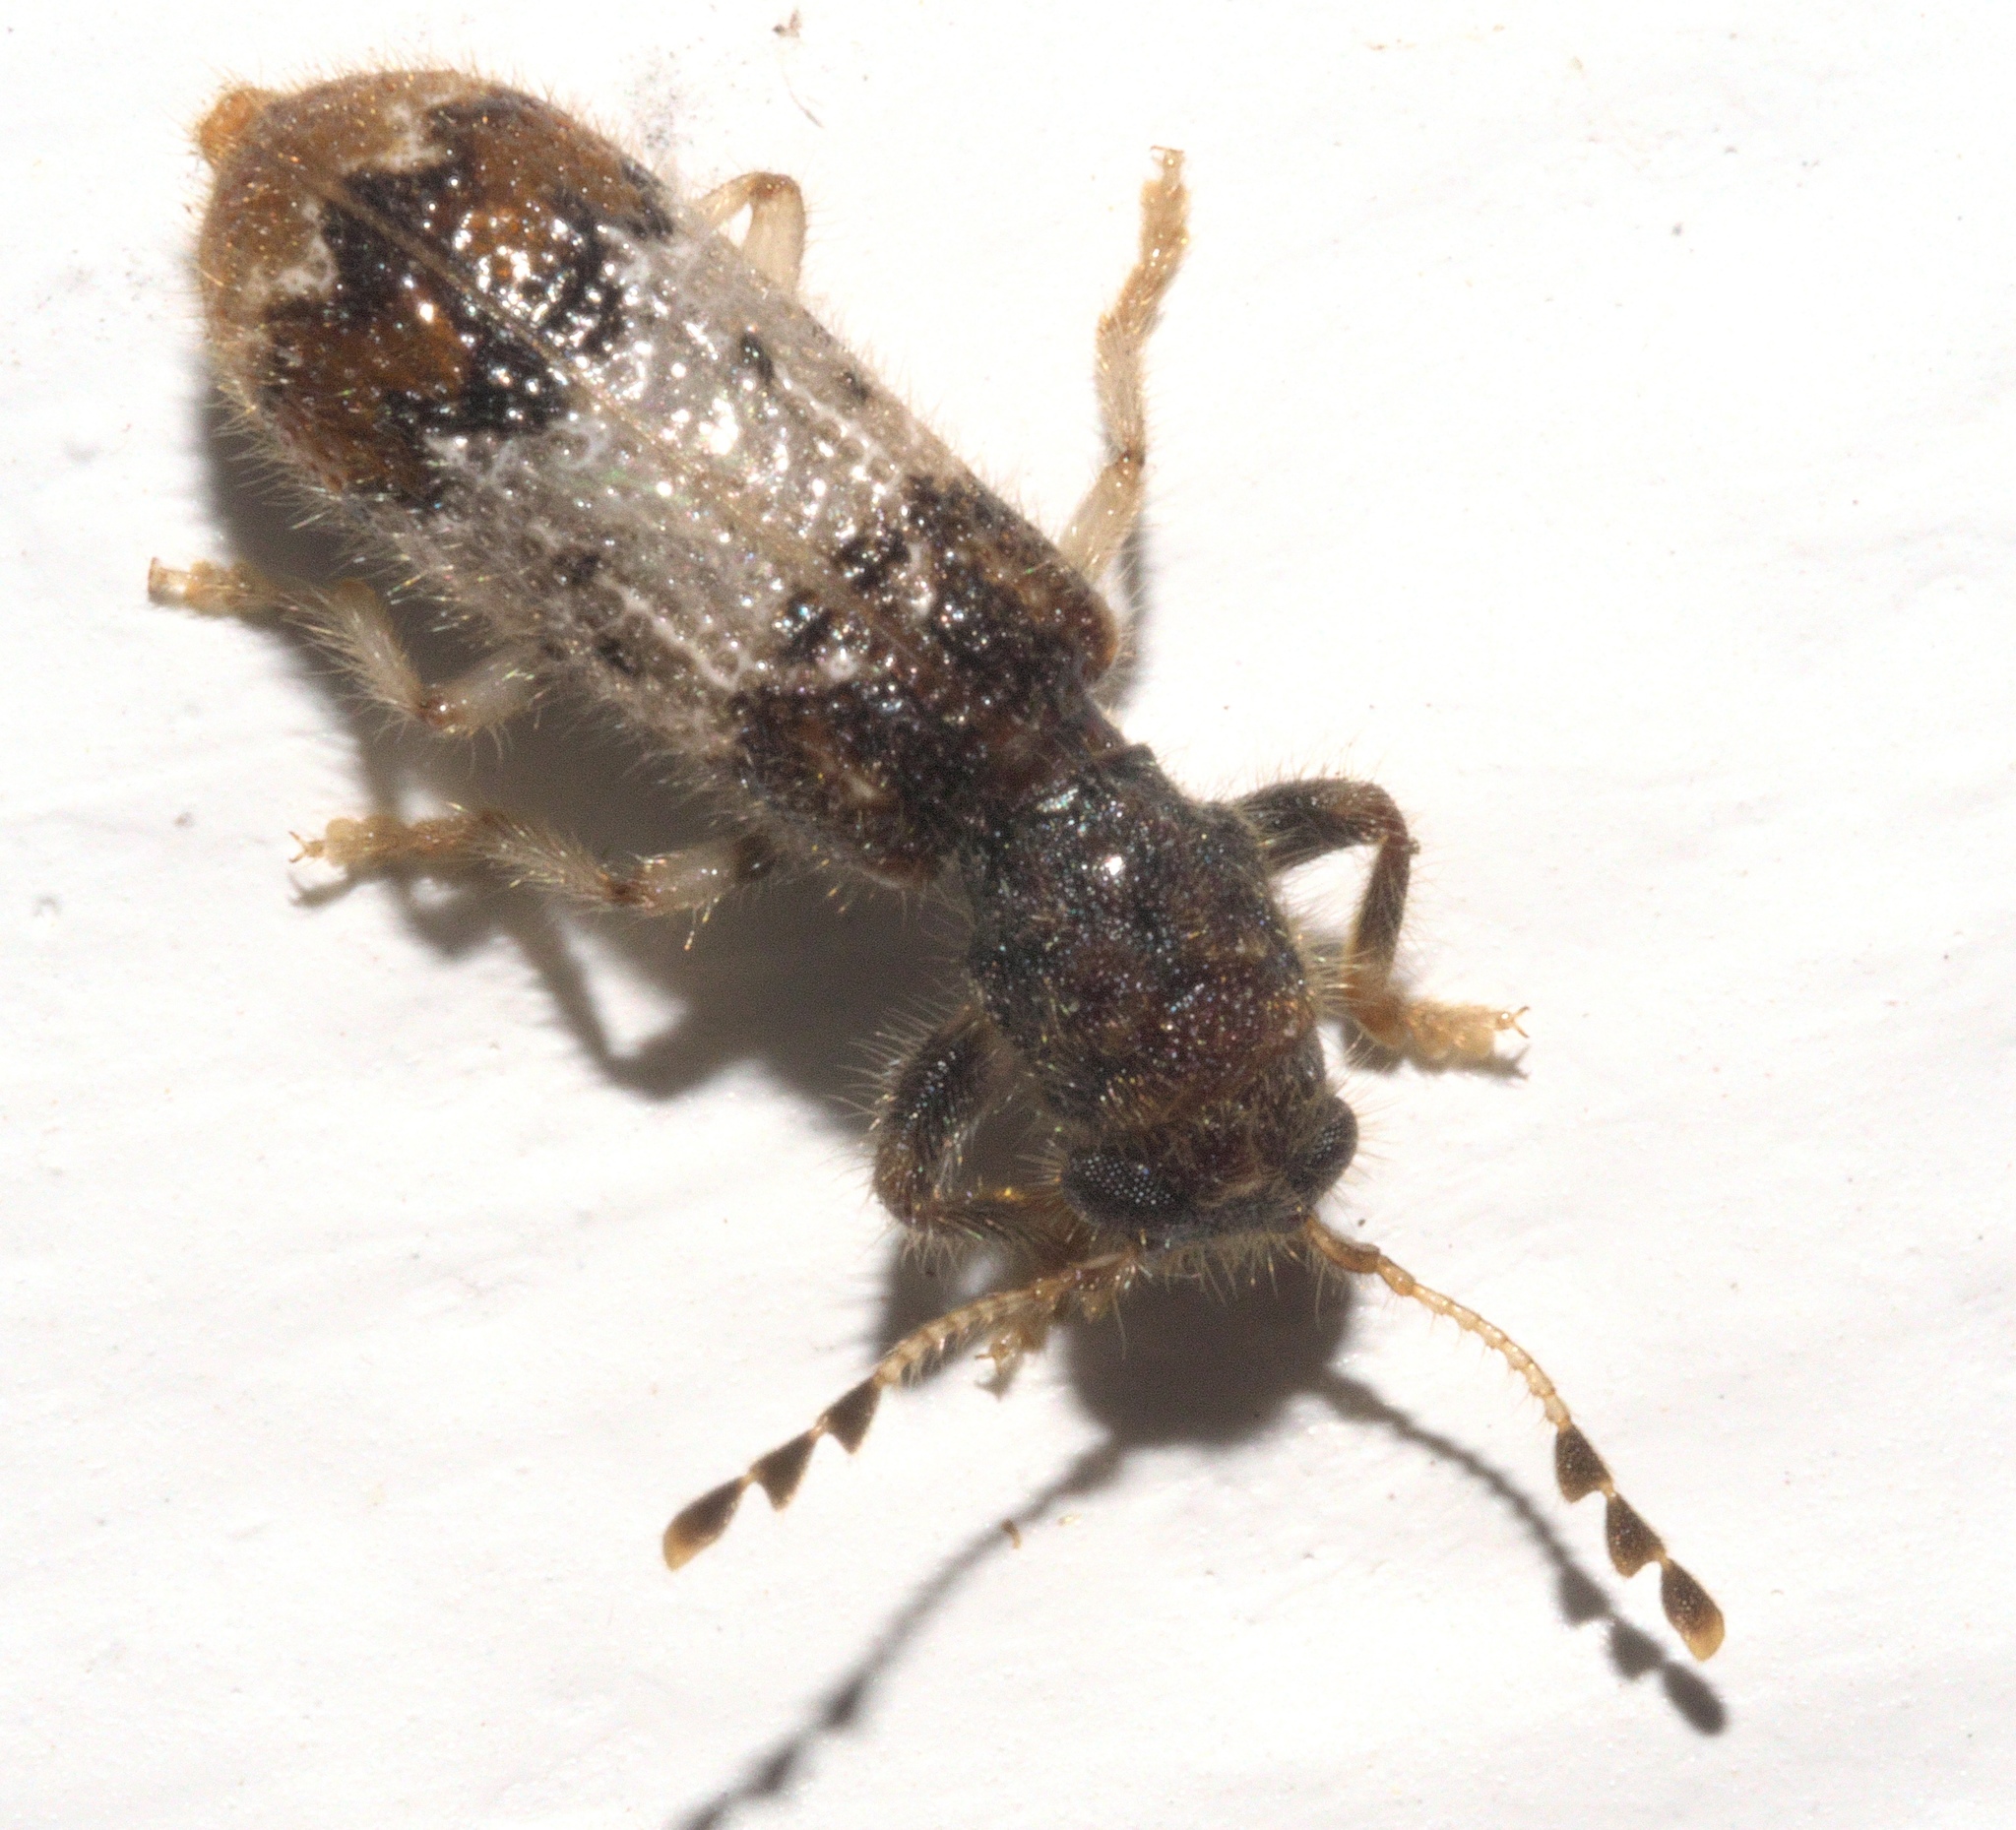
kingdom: Animalia
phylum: Arthropoda
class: Insecta
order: Coleoptera
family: Cleridae
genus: Pelonium
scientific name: Pelonium leucophaeum
